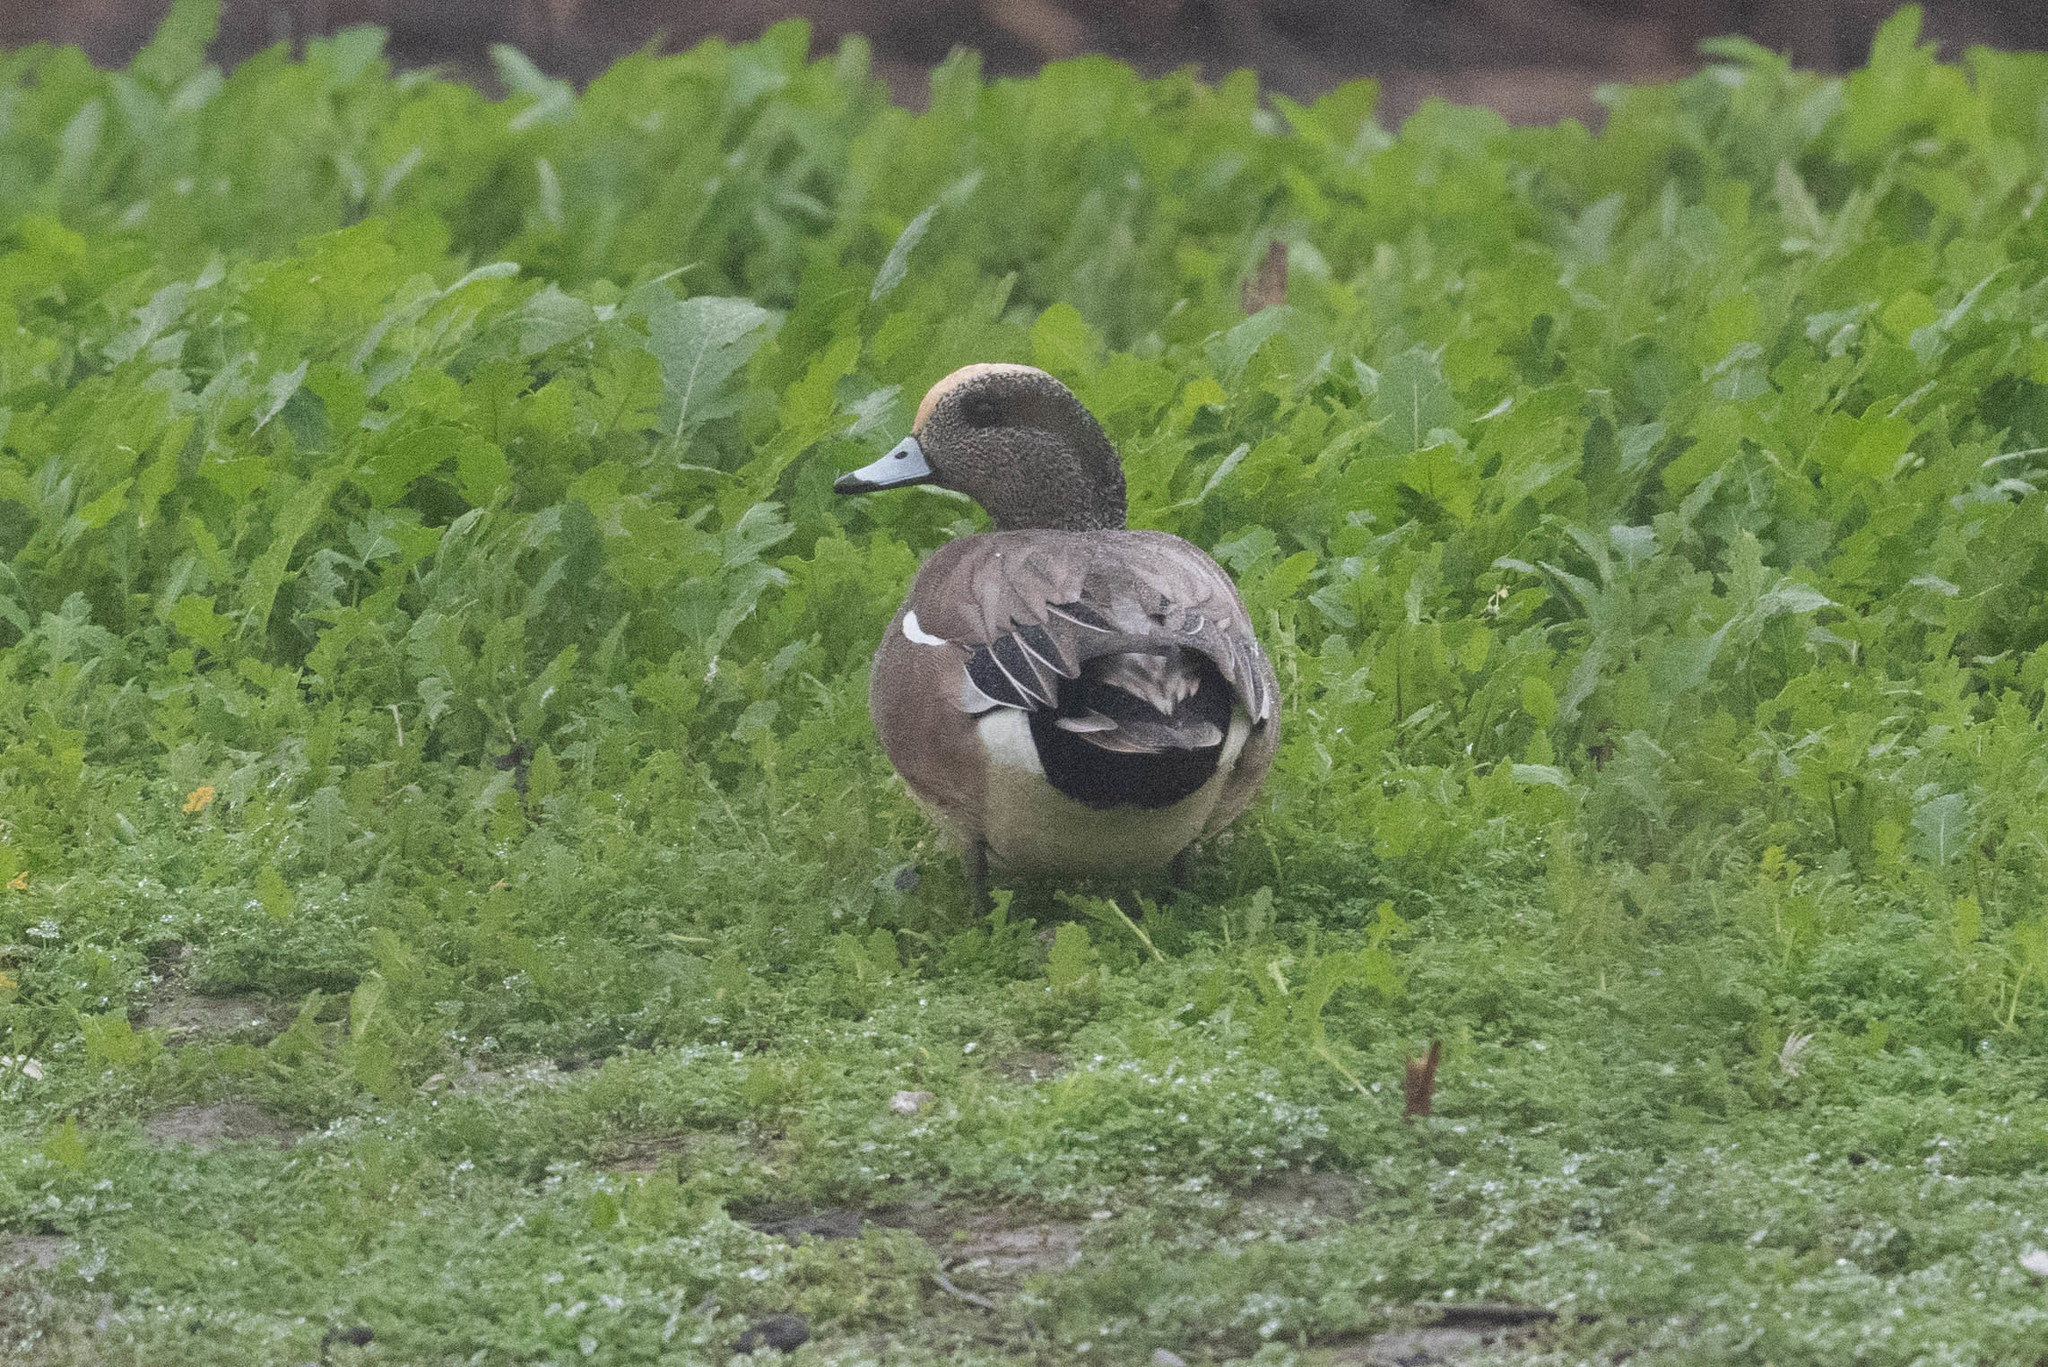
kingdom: Animalia
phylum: Chordata
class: Aves
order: Anseriformes
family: Anatidae
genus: Mareca
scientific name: Mareca americana
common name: American wigeon
